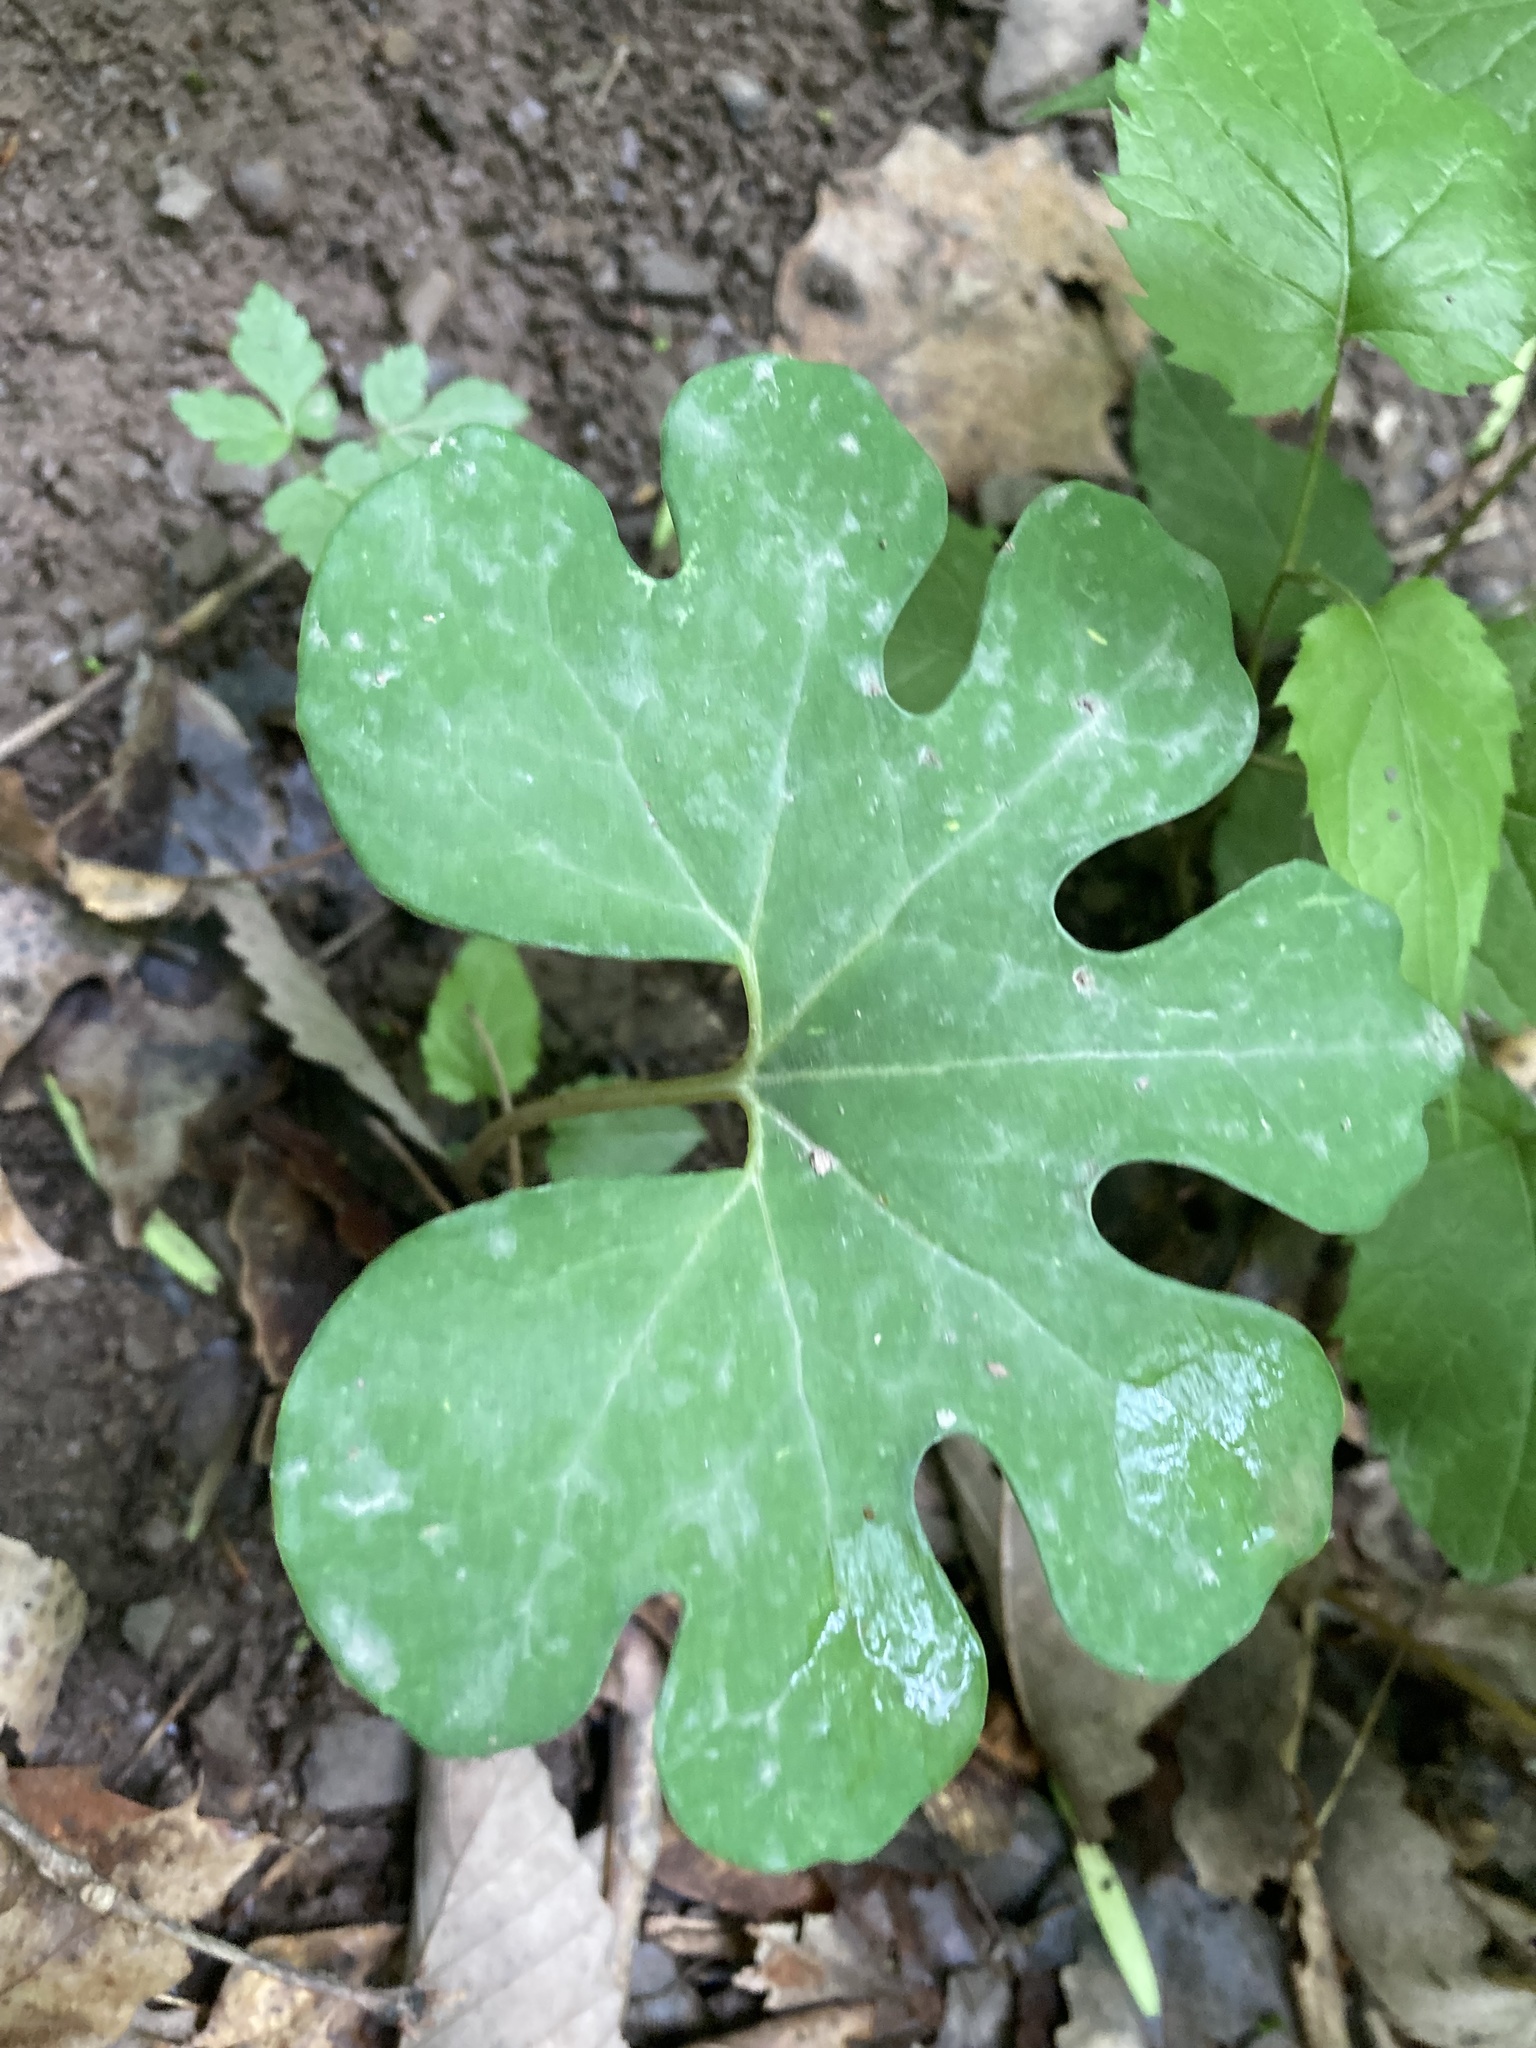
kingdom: Plantae
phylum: Tracheophyta
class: Magnoliopsida
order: Ranunculales
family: Papaveraceae
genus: Sanguinaria
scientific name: Sanguinaria canadensis
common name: Bloodroot
